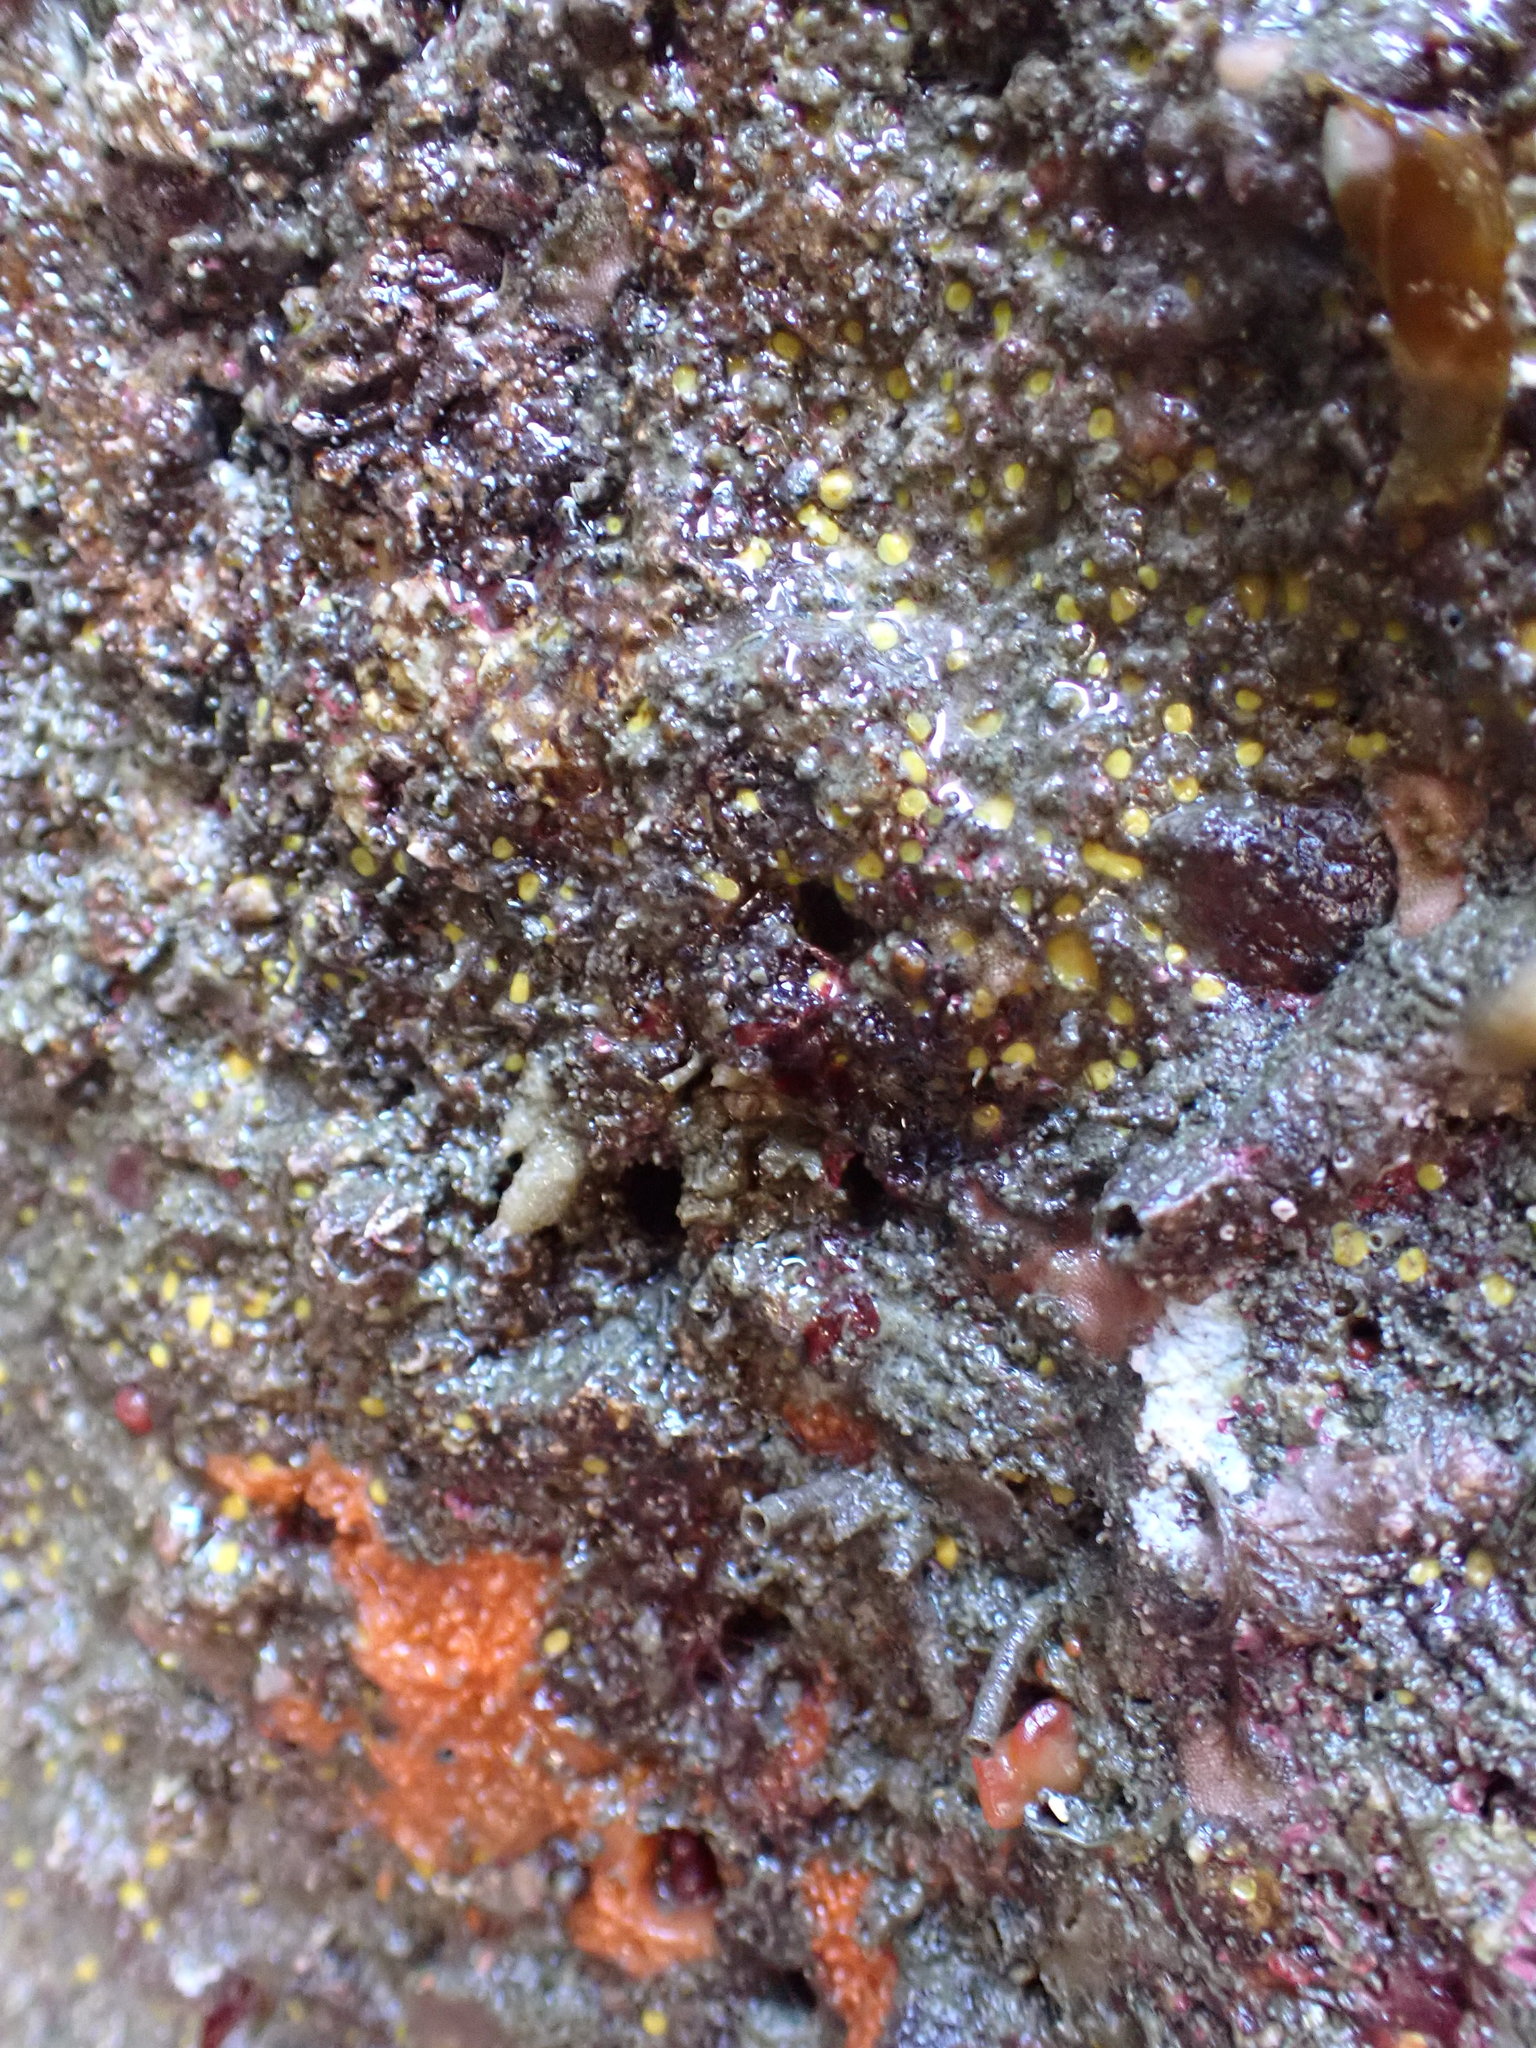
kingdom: Animalia
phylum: Porifera
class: Demospongiae
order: Clionaida
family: Clionaidae
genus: Cliona
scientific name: Cliona californiana
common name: California boring horny sponge
